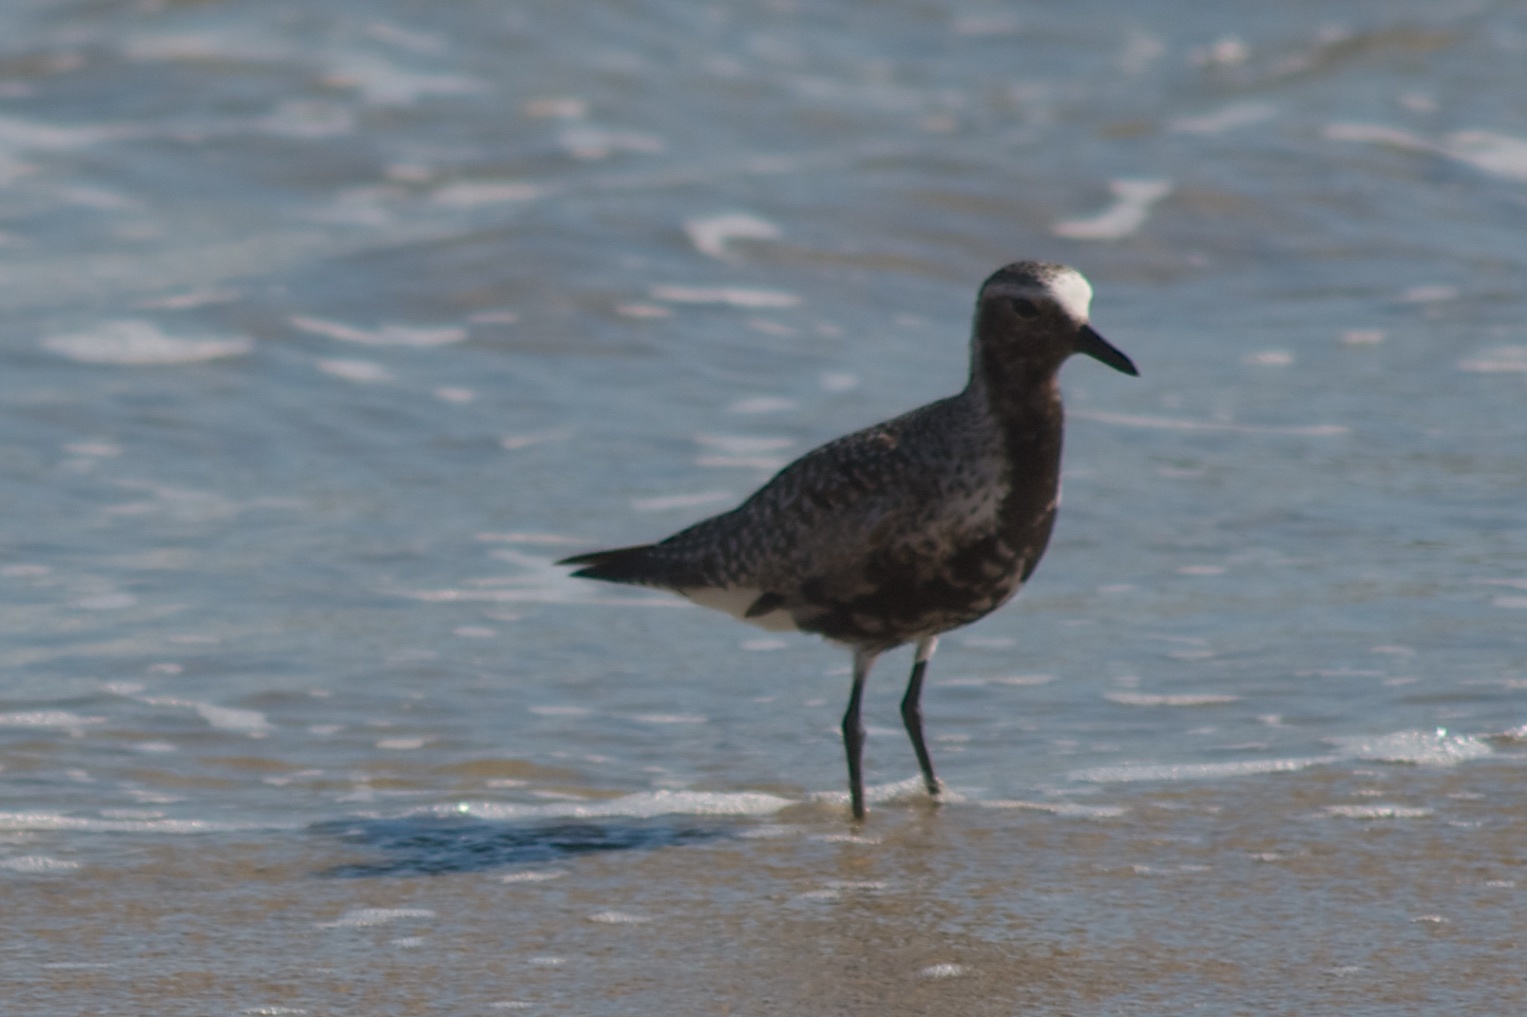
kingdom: Animalia
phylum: Chordata
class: Aves
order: Charadriiformes
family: Charadriidae
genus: Pluvialis
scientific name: Pluvialis squatarola
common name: Grey plover
